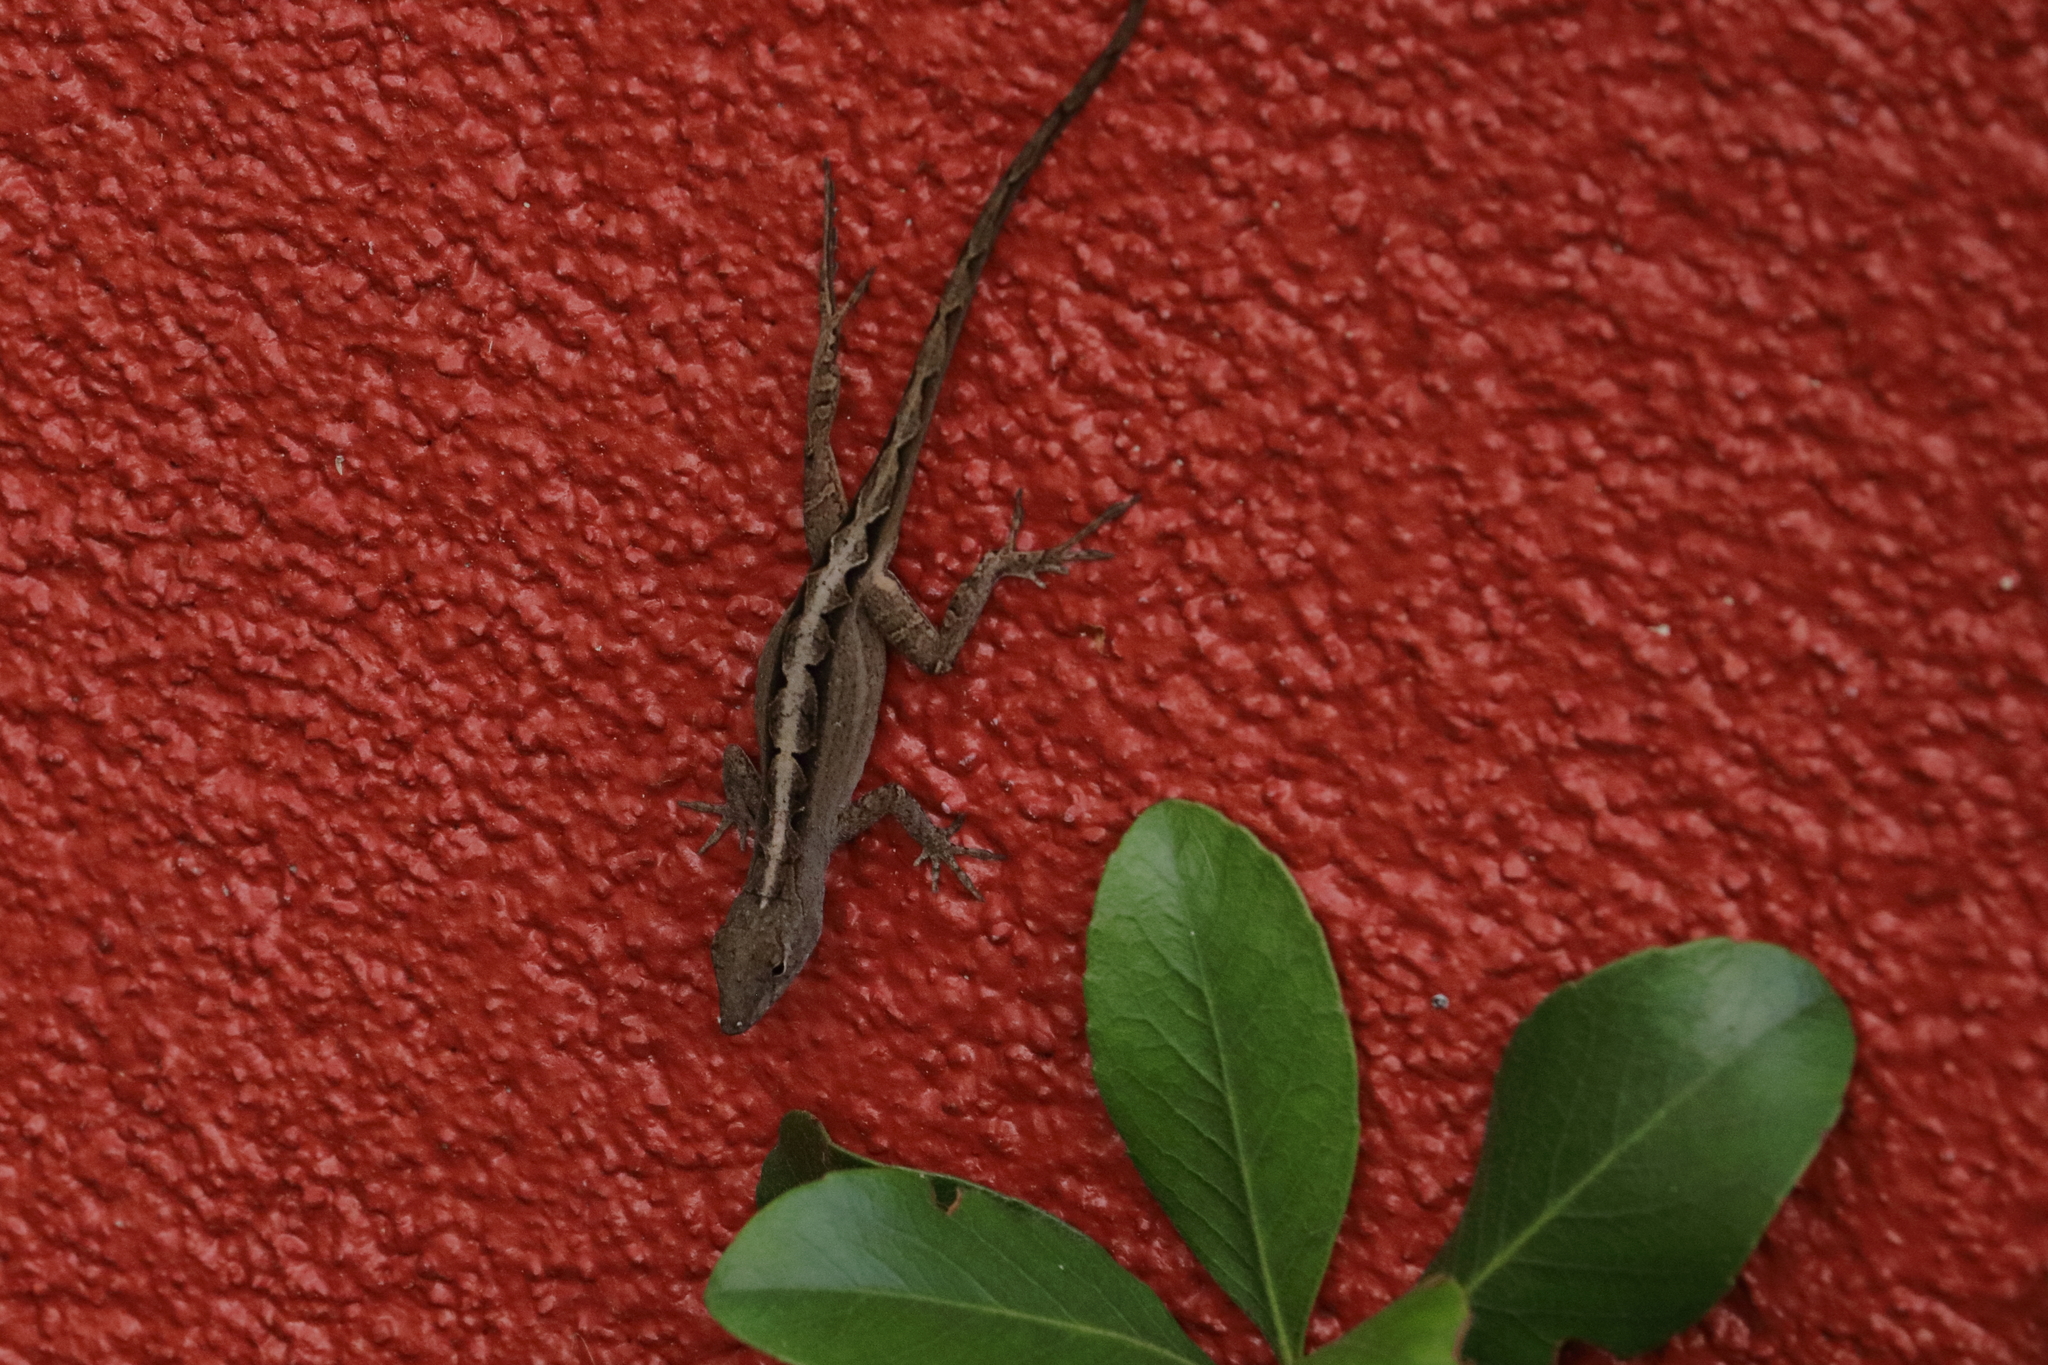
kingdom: Animalia
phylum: Chordata
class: Squamata
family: Dactyloidae
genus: Anolis
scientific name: Anolis sagrei
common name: Brown anole
